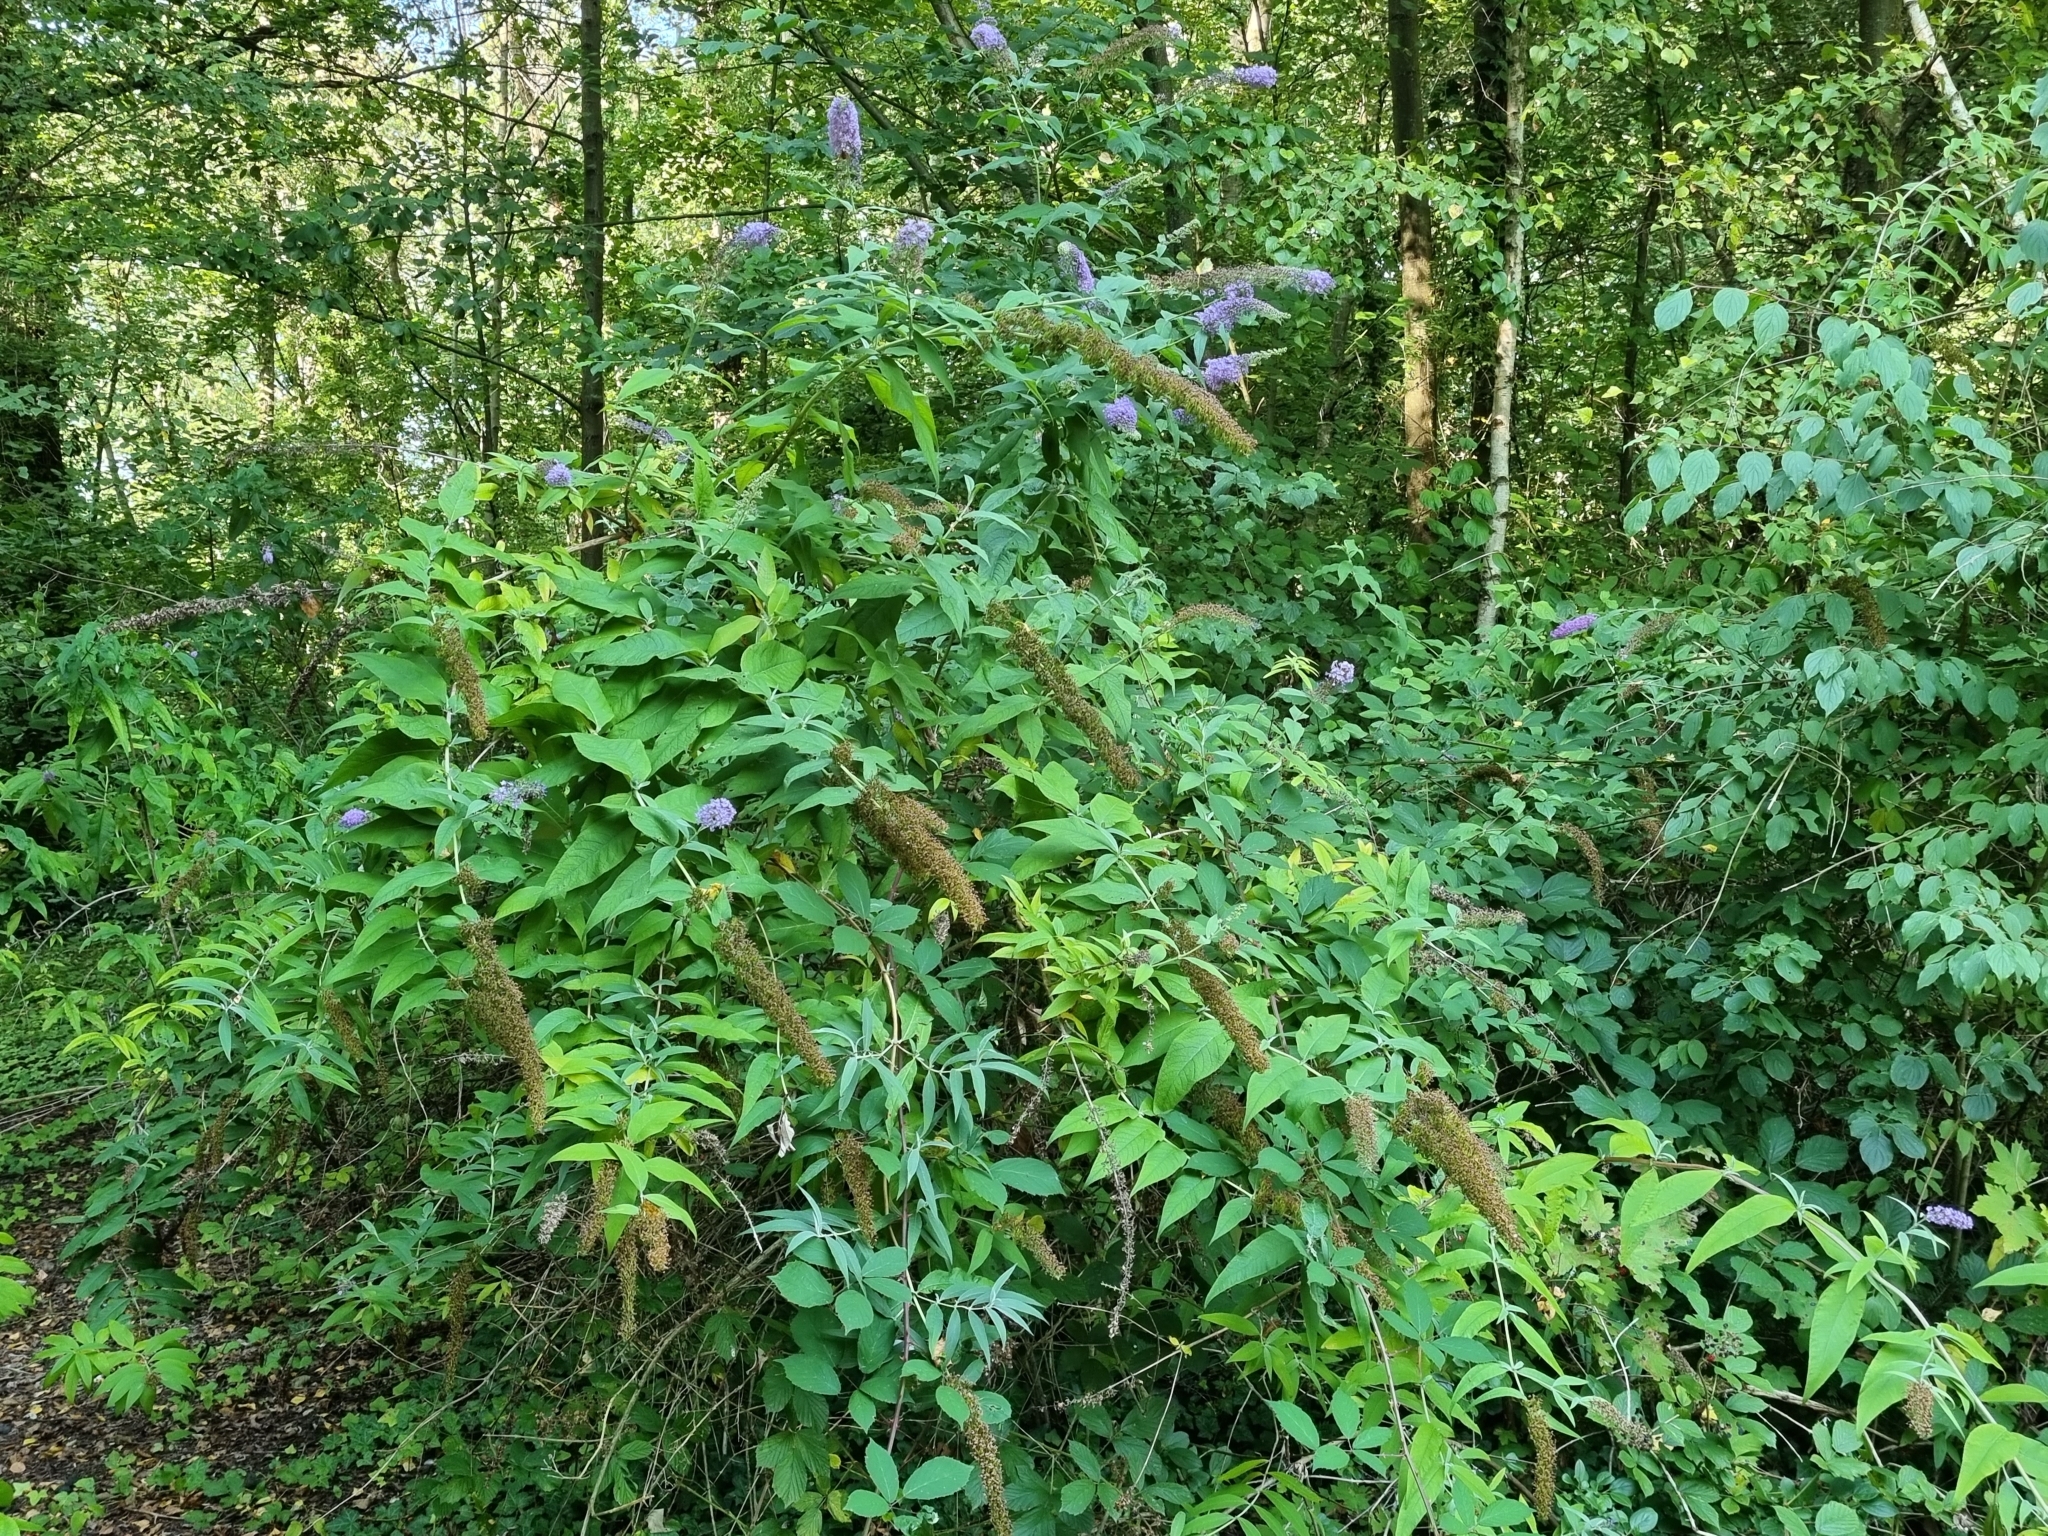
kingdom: Plantae
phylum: Tracheophyta
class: Magnoliopsida
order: Lamiales
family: Scrophulariaceae
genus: Buddleja
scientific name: Buddleja davidii
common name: Butterfly-bush
